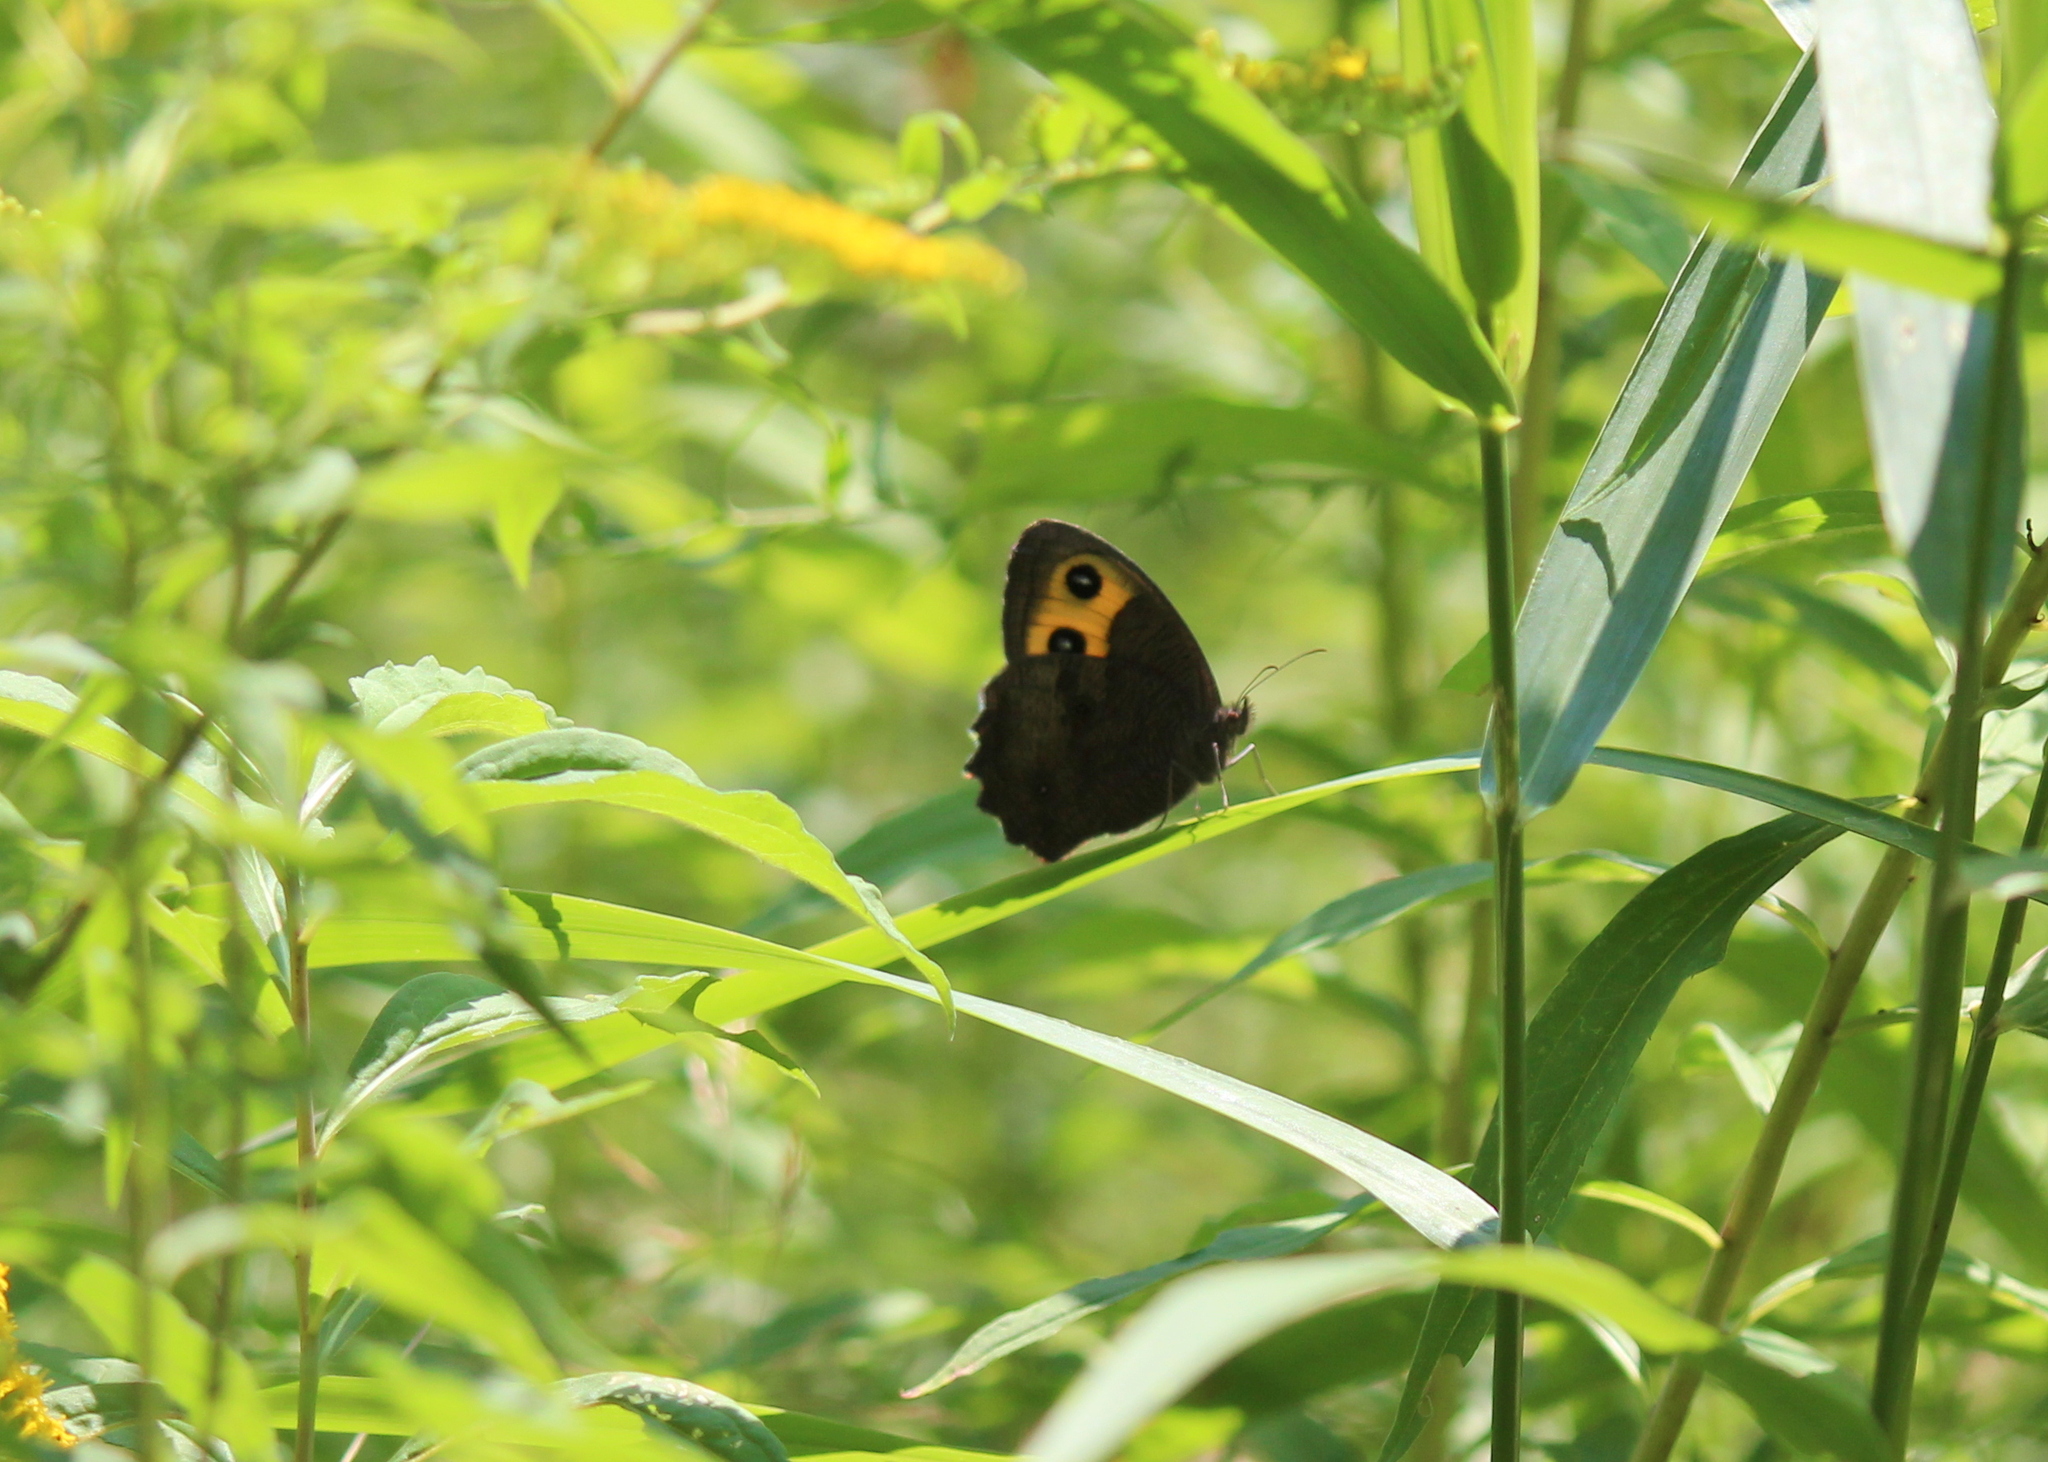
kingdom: Animalia
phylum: Arthropoda
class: Insecta
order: Lepidoptera
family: Nymphalidae
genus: Cercyonis
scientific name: Cercyonis pegala
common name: Common wood-nymph
